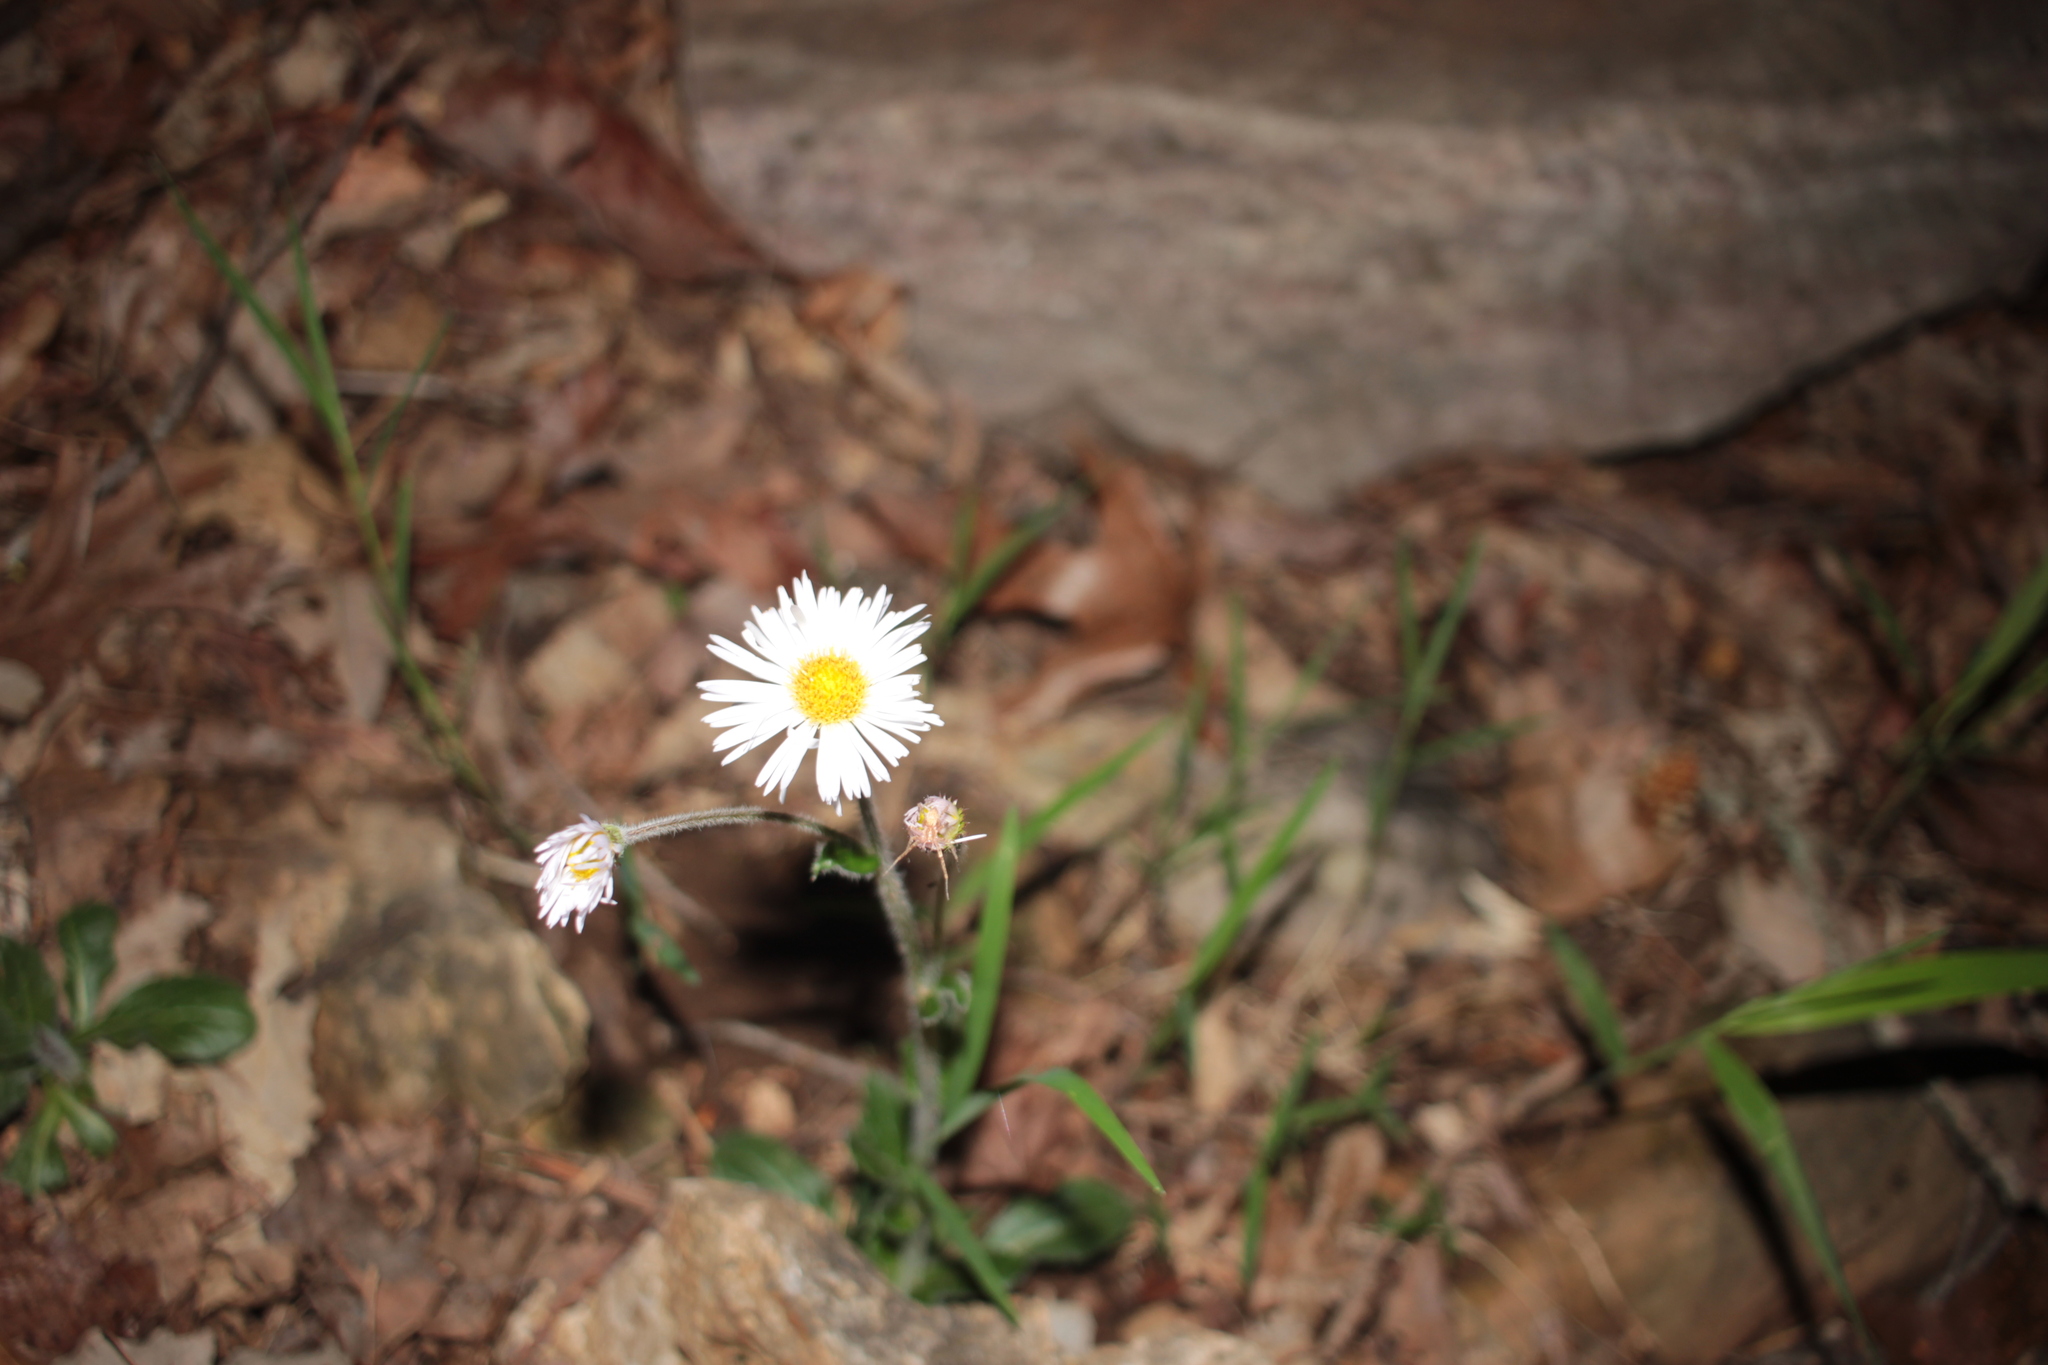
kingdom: Plantae
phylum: Tracheophyta
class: Magnoliopsida
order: Asterales
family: Asteraceae
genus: Erigeron
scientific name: Erigeron pulchellus
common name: Hairy fleabane
